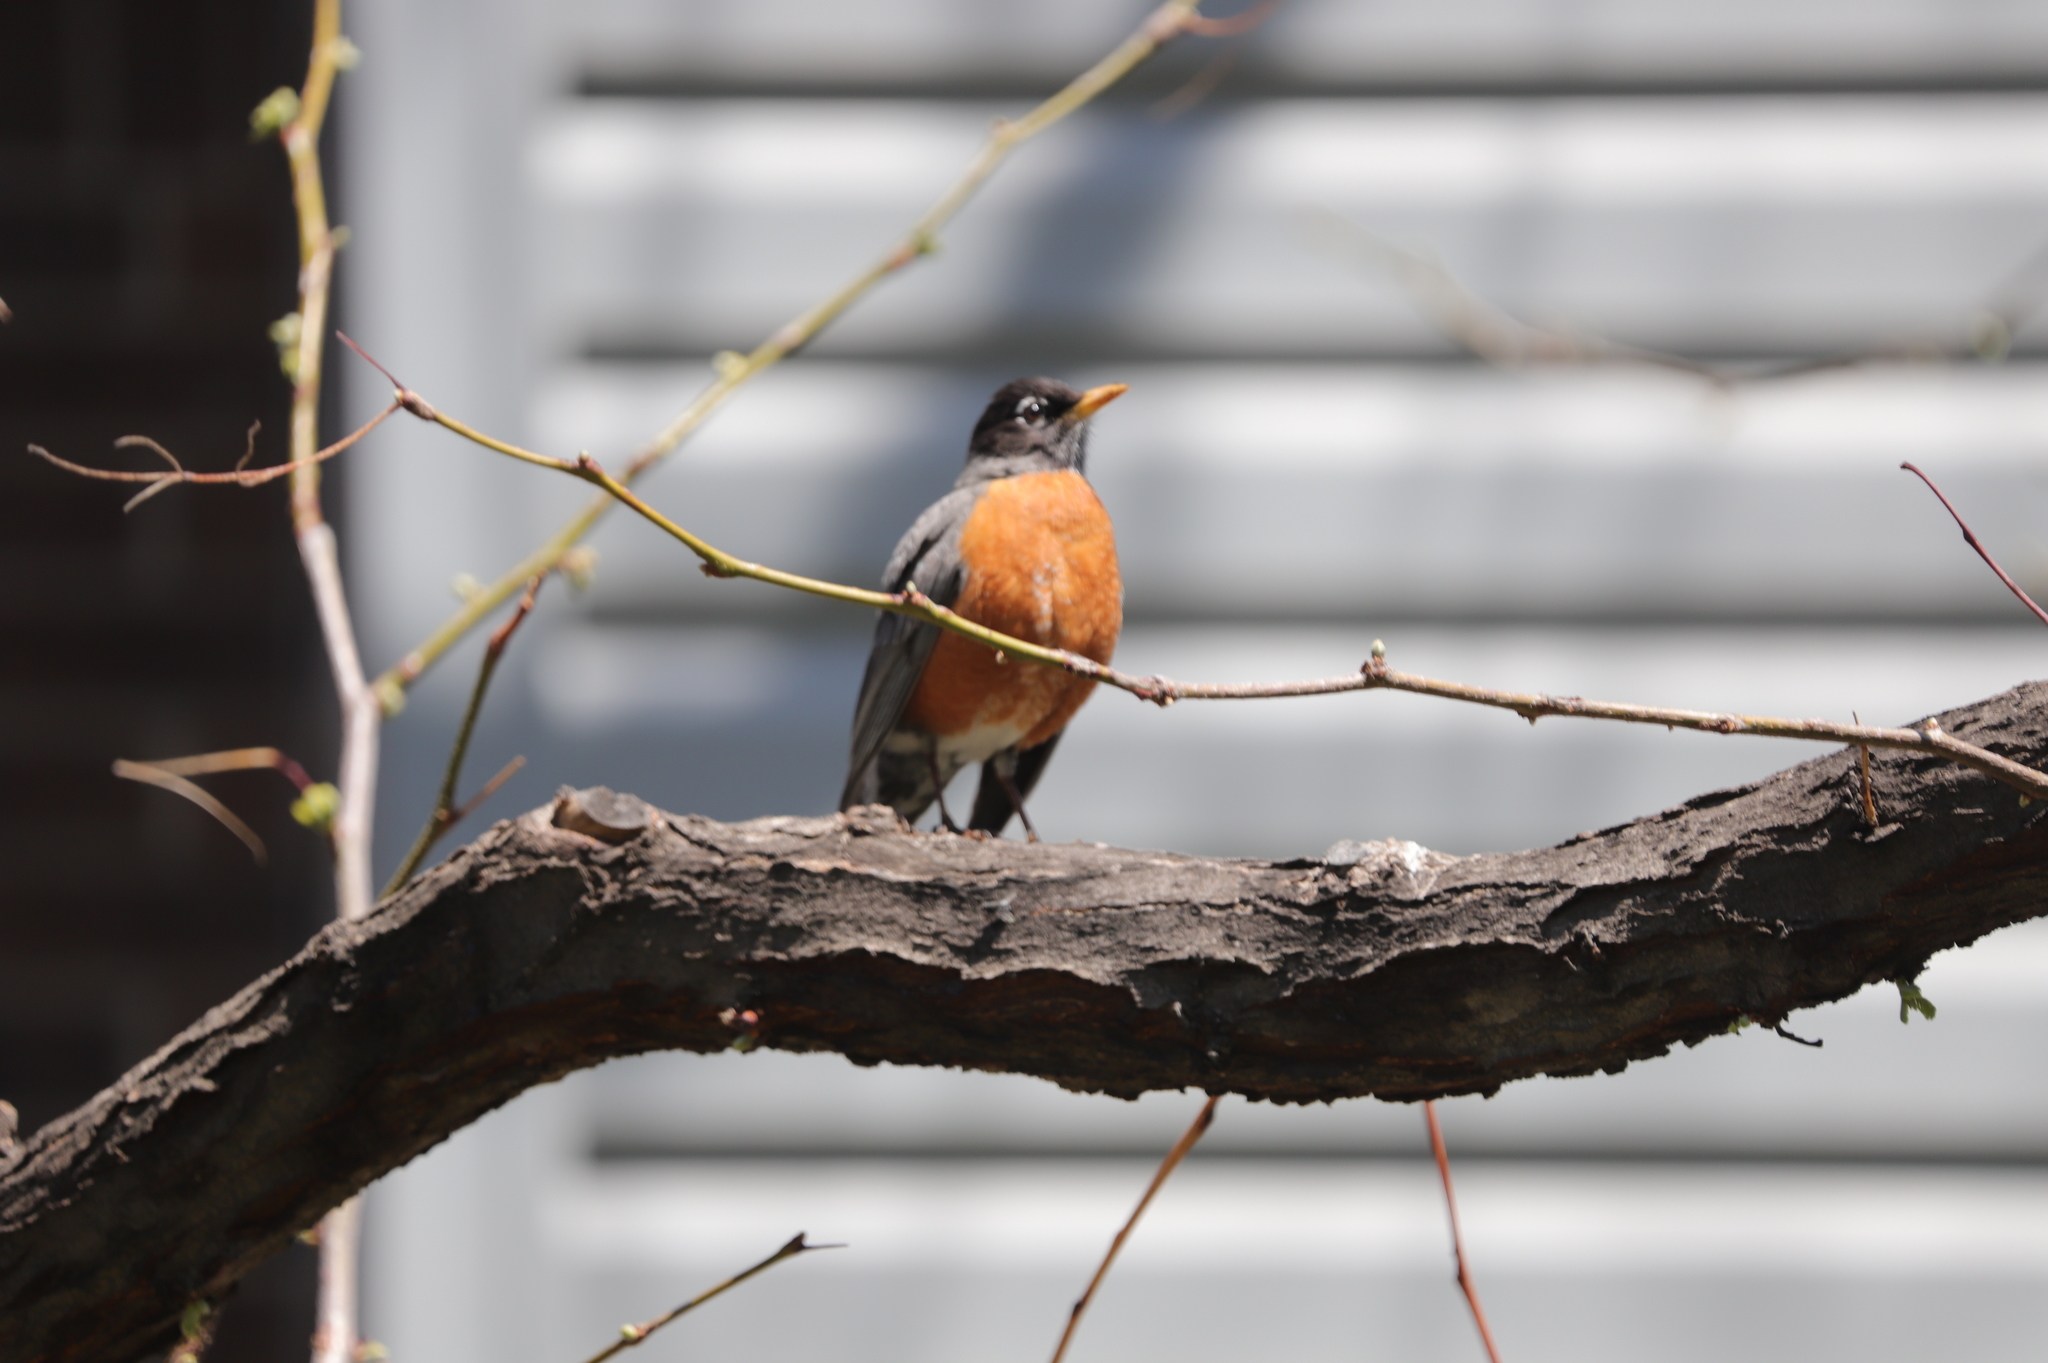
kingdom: Animalia
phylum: Chordata
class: Aves
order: Passeriformes
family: Turdidae
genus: Turdus
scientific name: Turdus migratorius
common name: American robin
